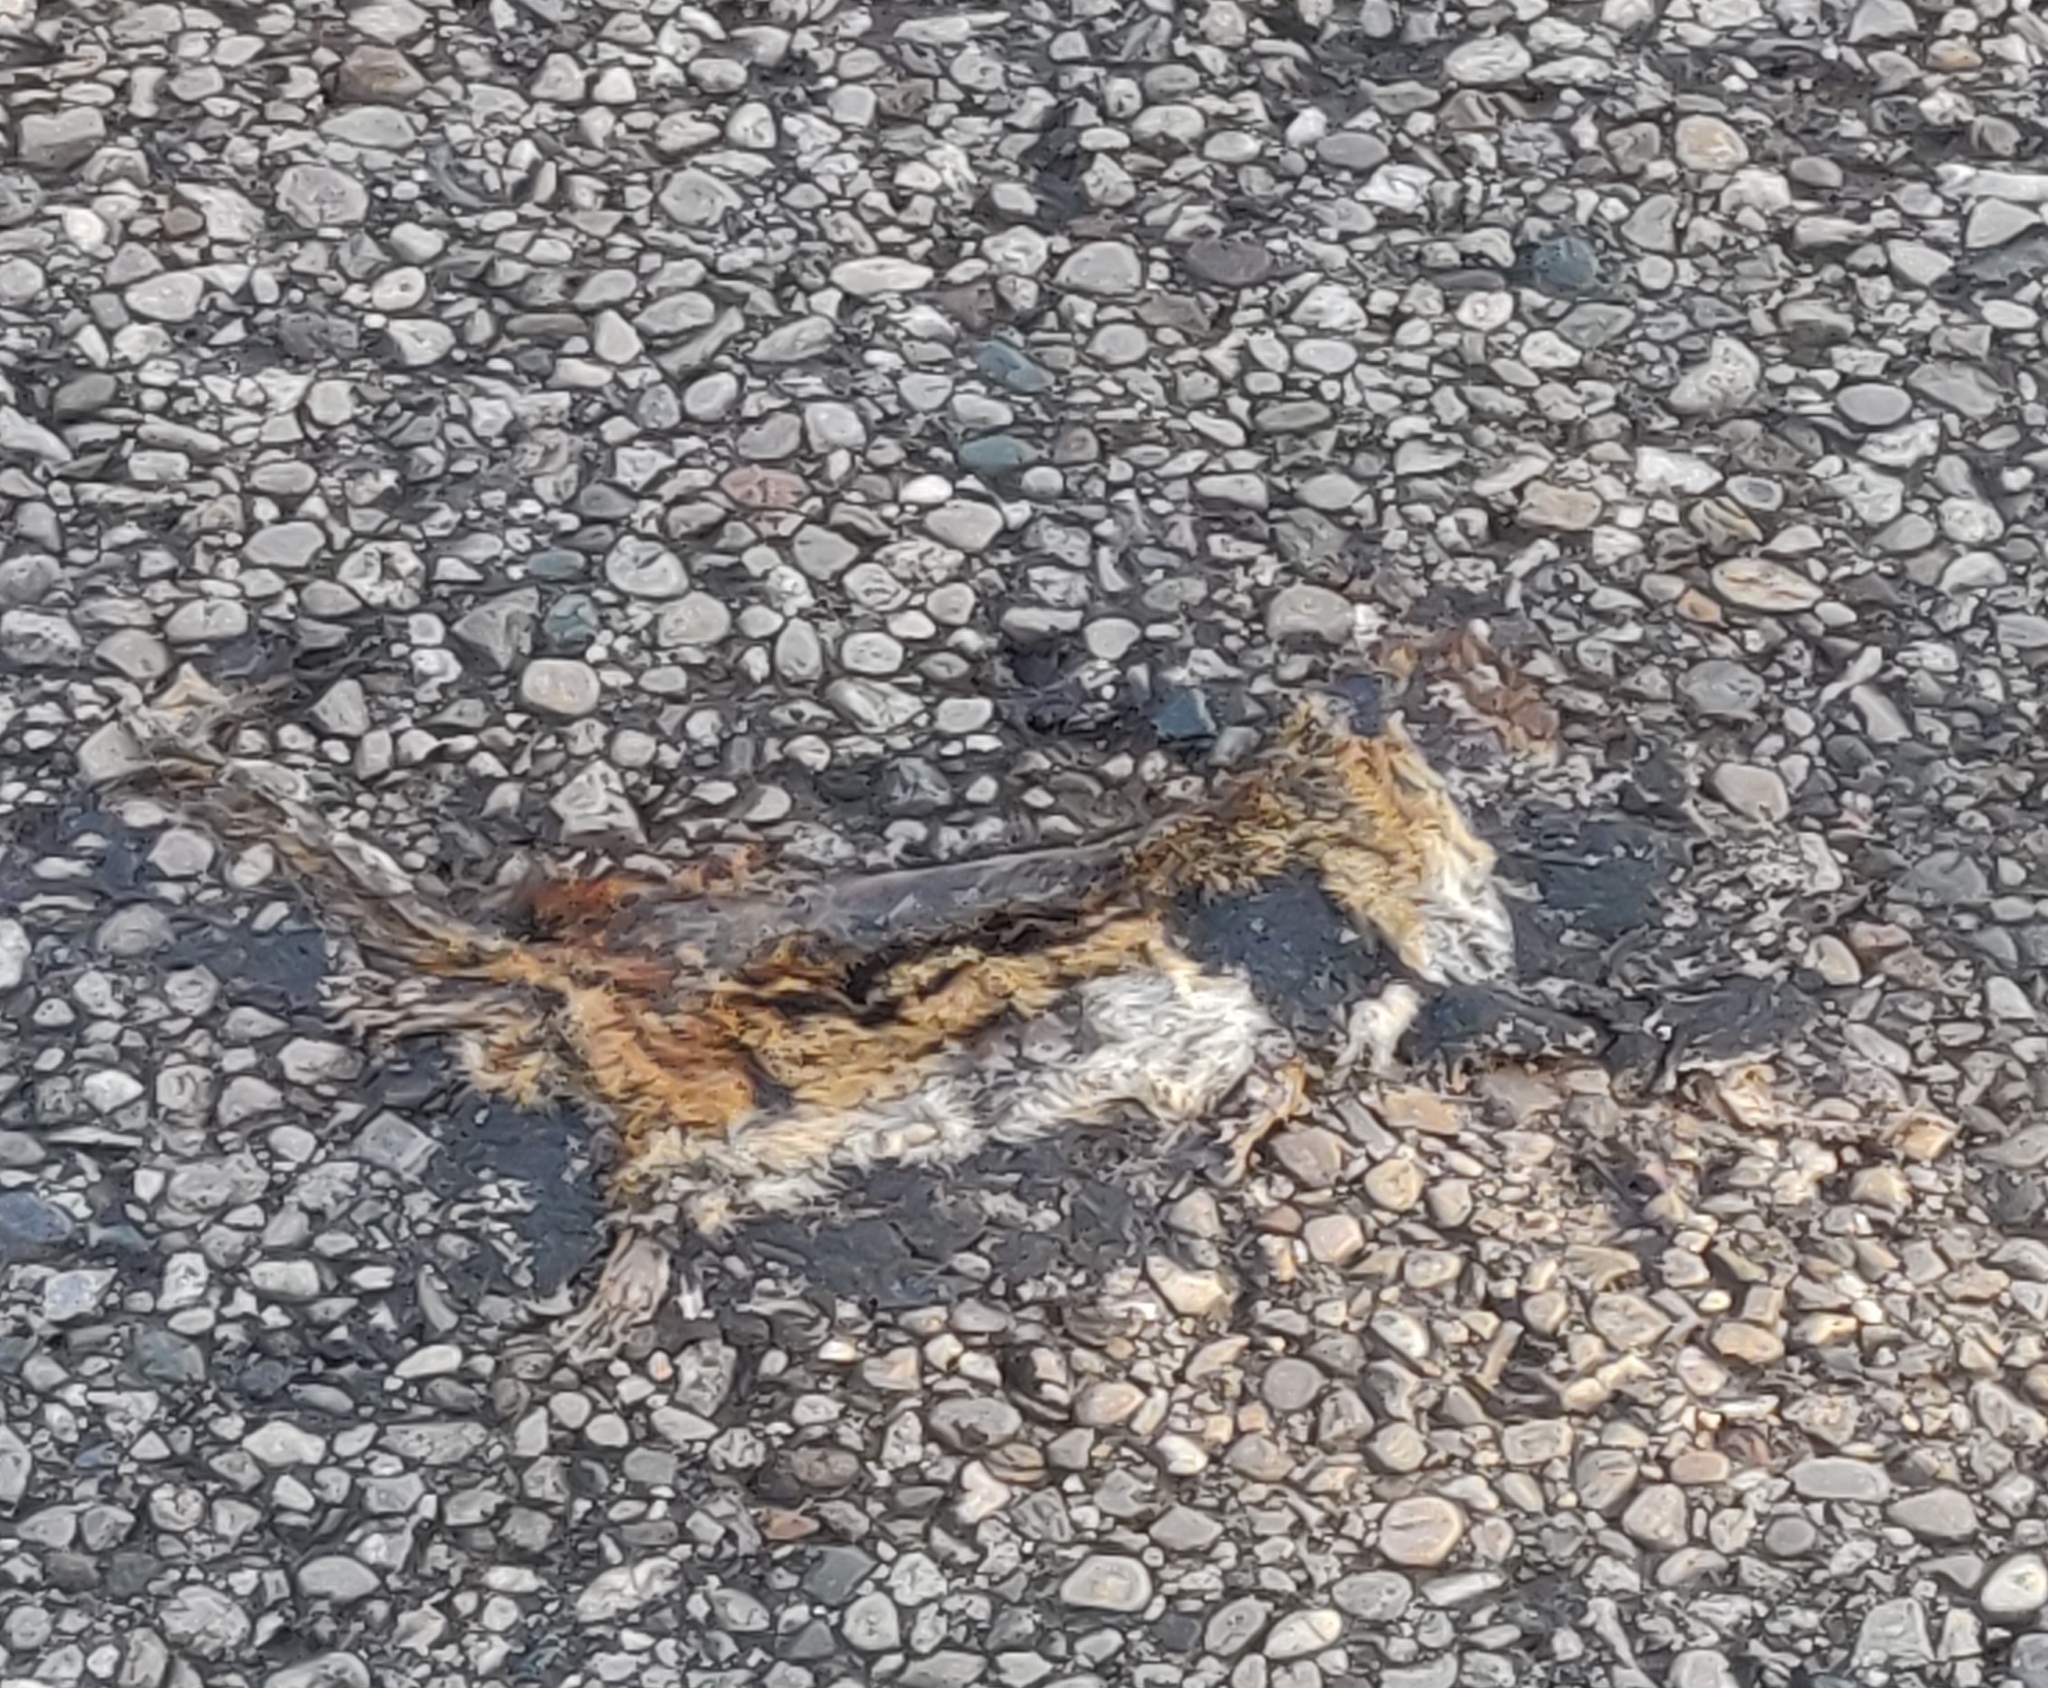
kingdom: Animalia
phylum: Chordata
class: Mammalia
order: Rodentia
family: Sciuridae
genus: Tamias
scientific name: Tamias striatus
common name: Eastern chipmunk
